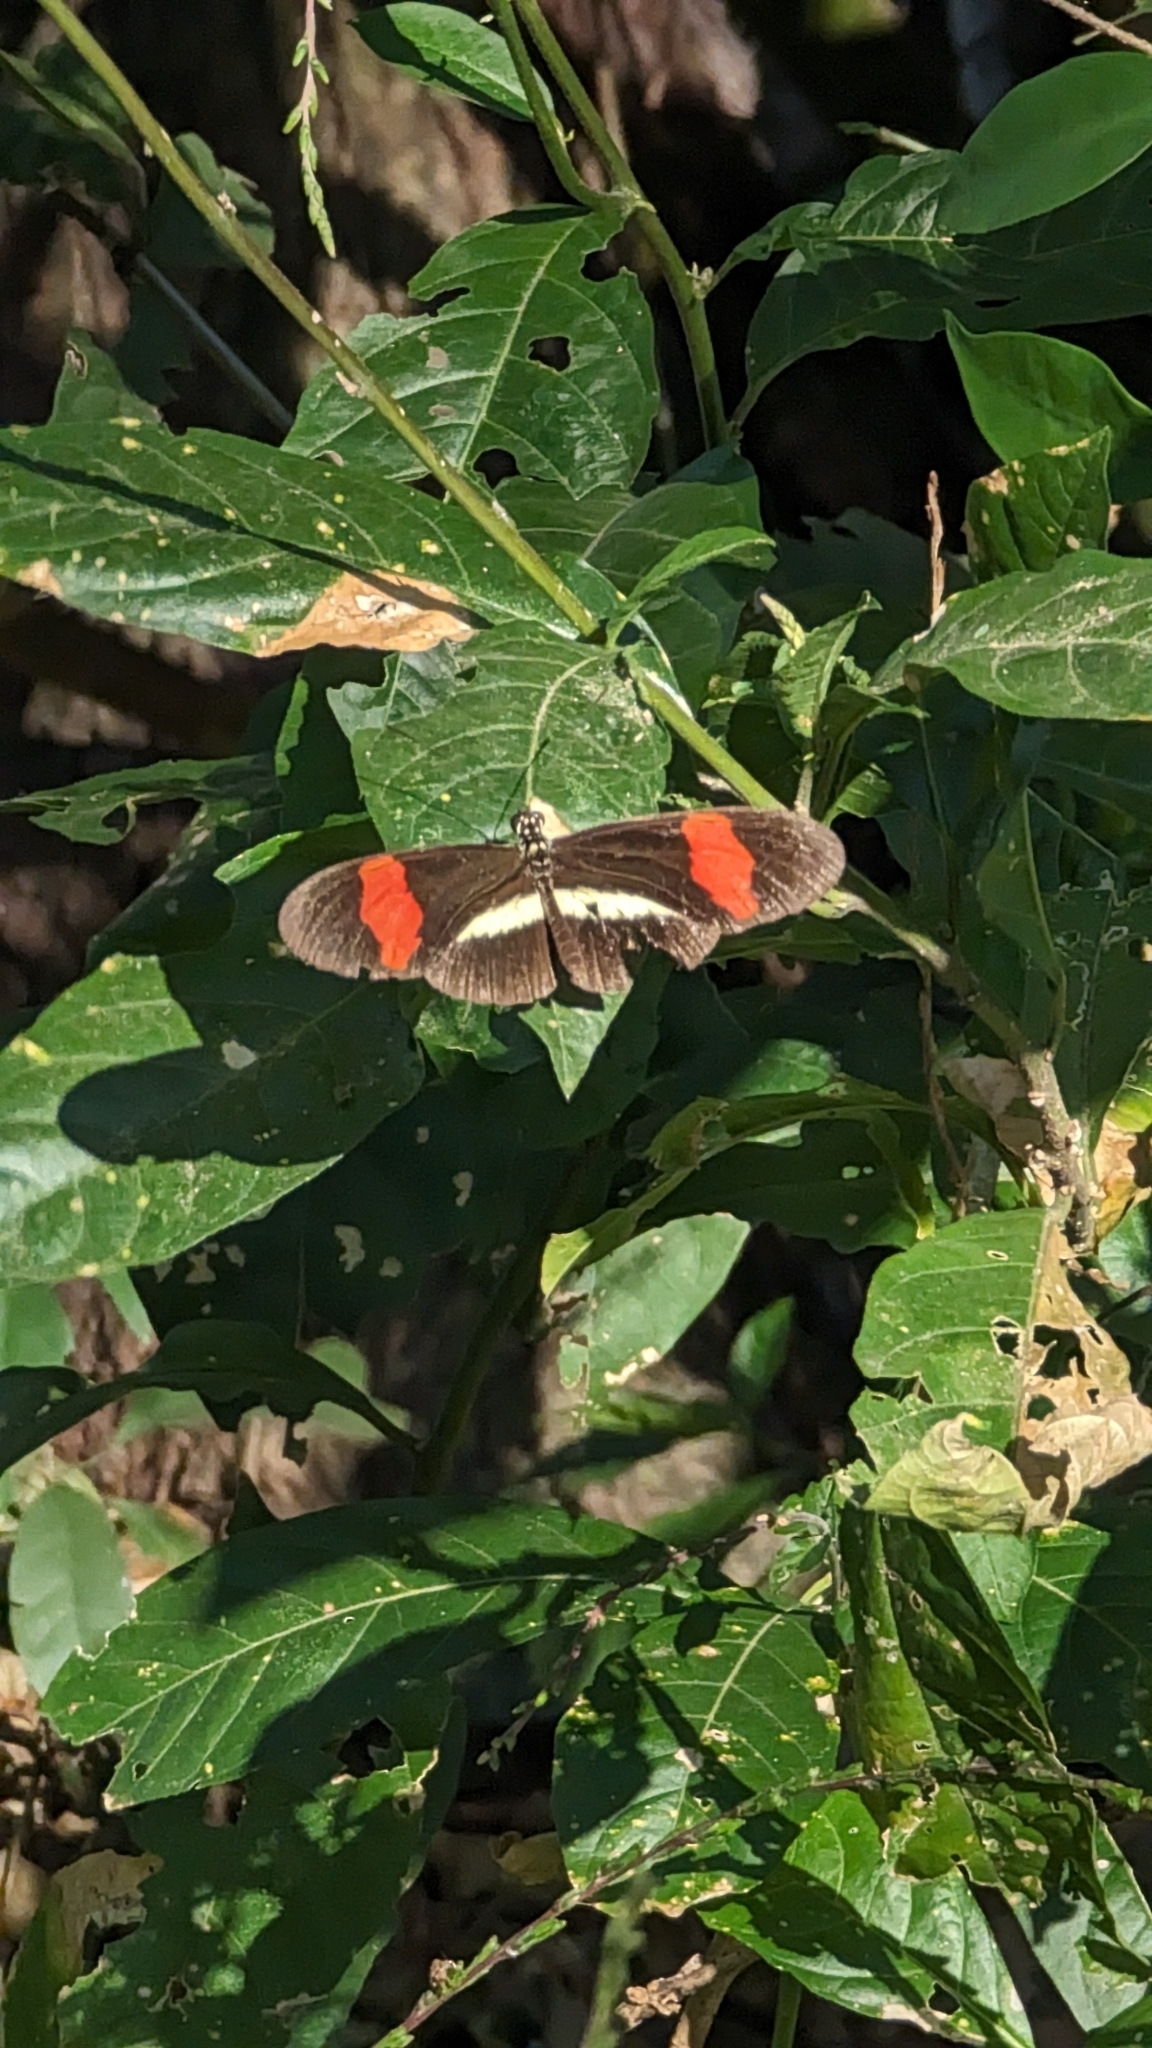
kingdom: Animalia
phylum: Arthropoda
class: Insecta
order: Lepidoptera
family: Nymphalidae
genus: Tirumala
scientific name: Tirumala petiverana
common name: Blue monarch
